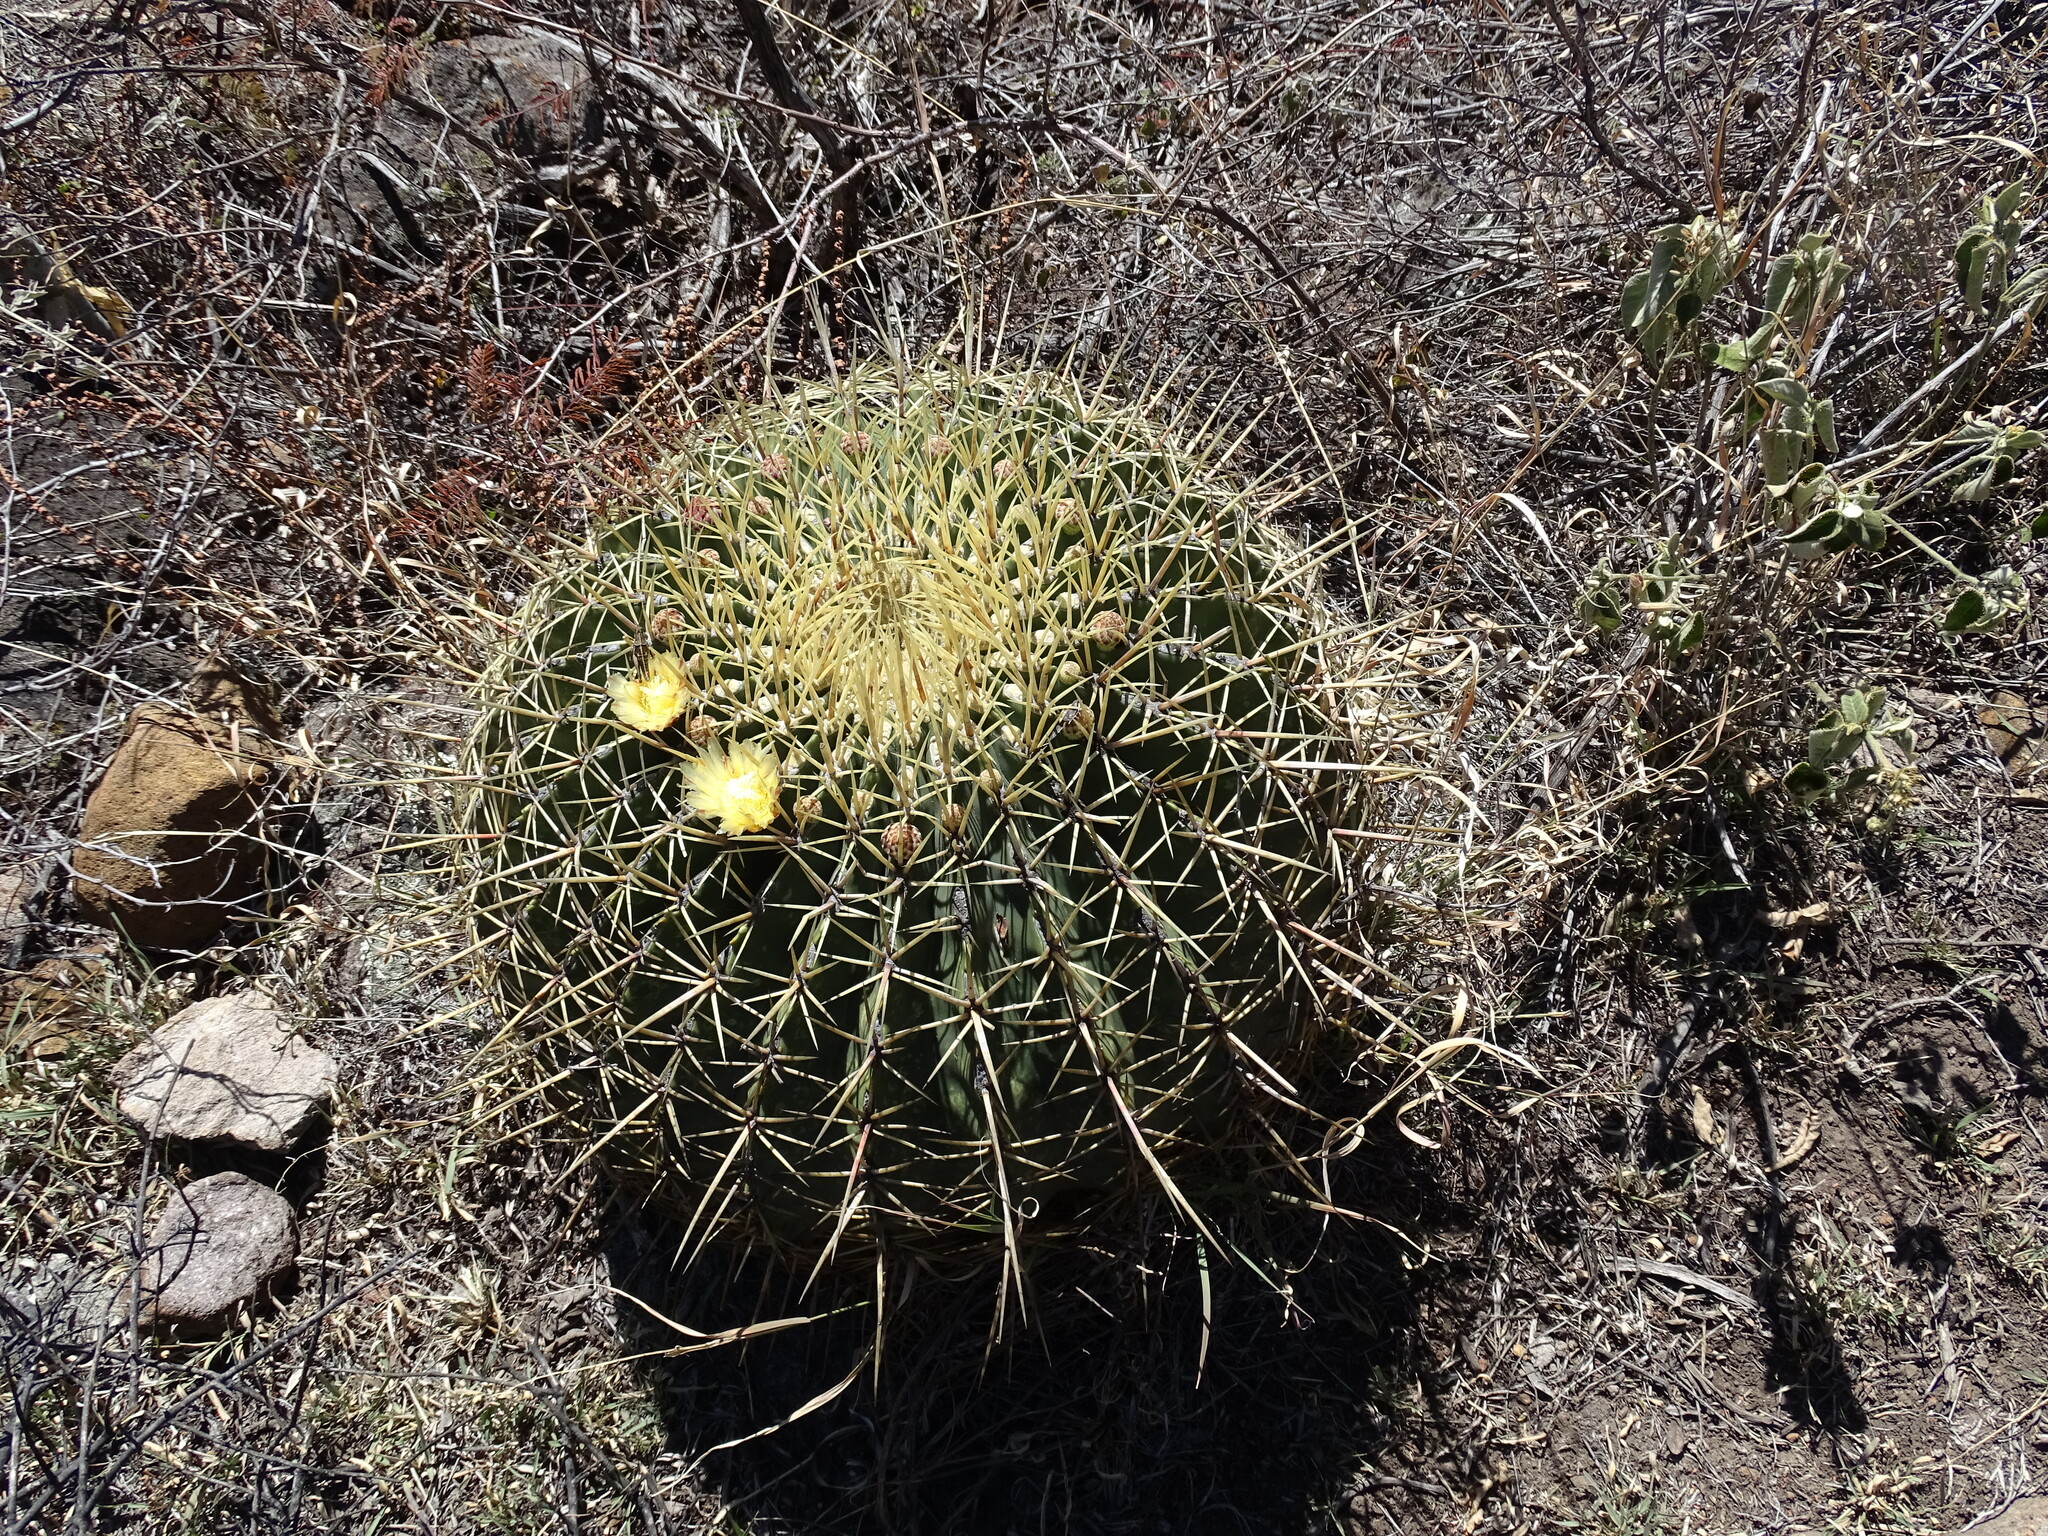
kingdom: Plantae
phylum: Tracheophyta
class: Magnoliopsida
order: Caryophyllales
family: Cactaceae
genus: Bisnaga
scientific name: Bisnaga histrix
